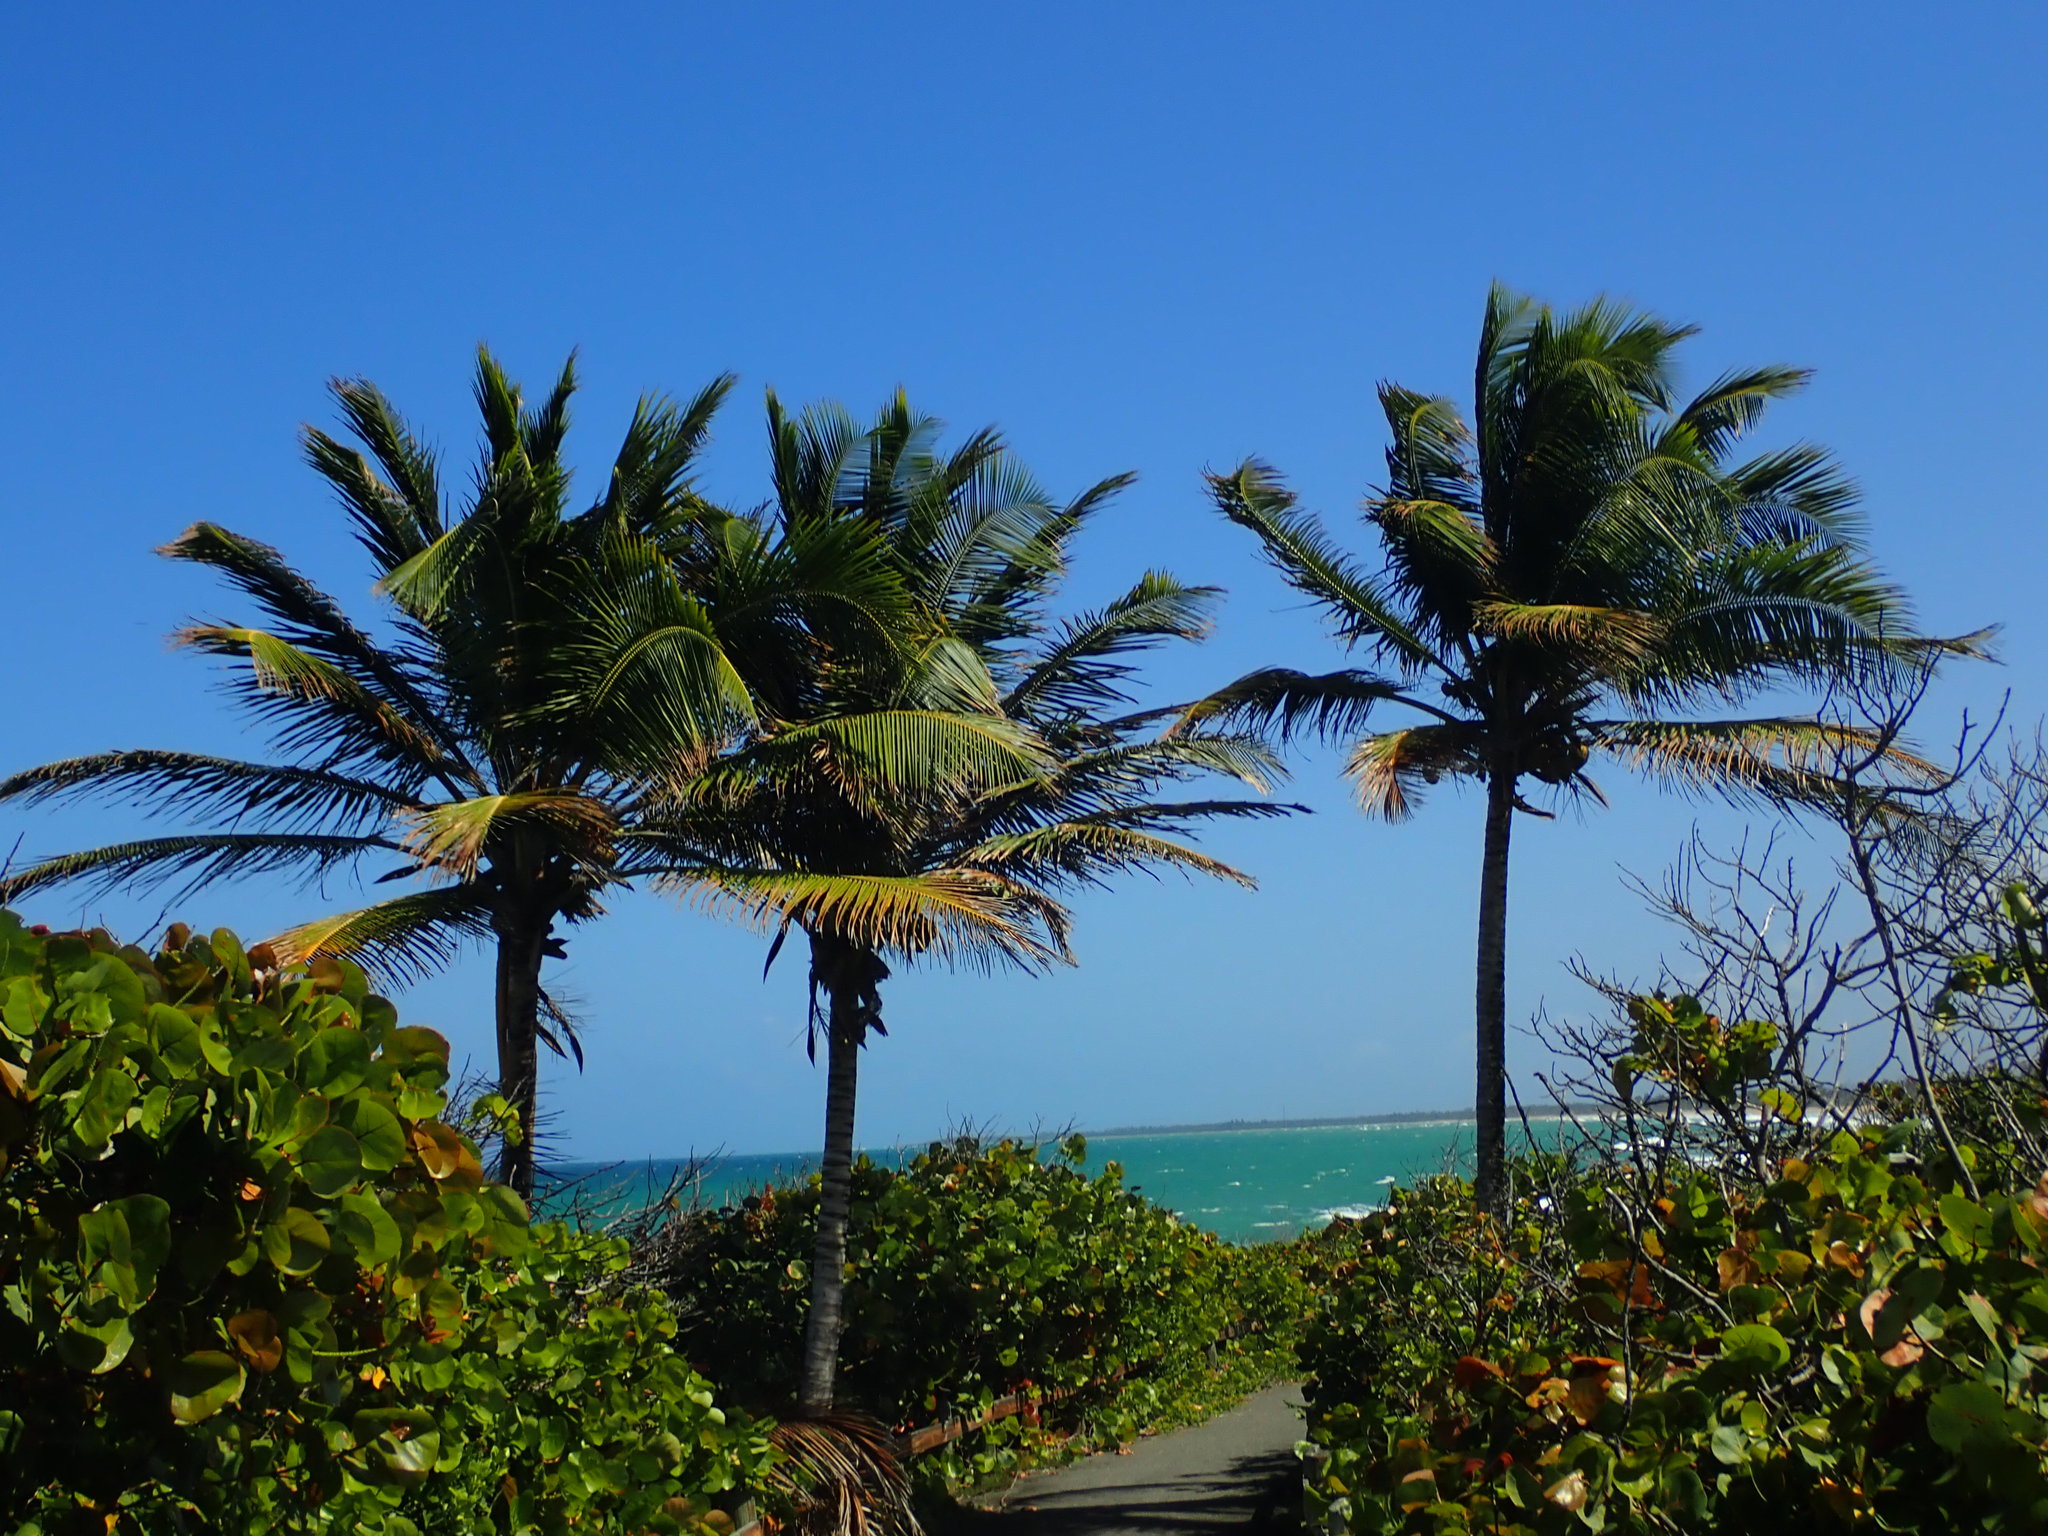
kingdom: Plantae
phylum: Tracheophyta
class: Liliopsida
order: Arecales
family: Arecaceae
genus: Cocos
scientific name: Cocos nucifera
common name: Coconut palm
